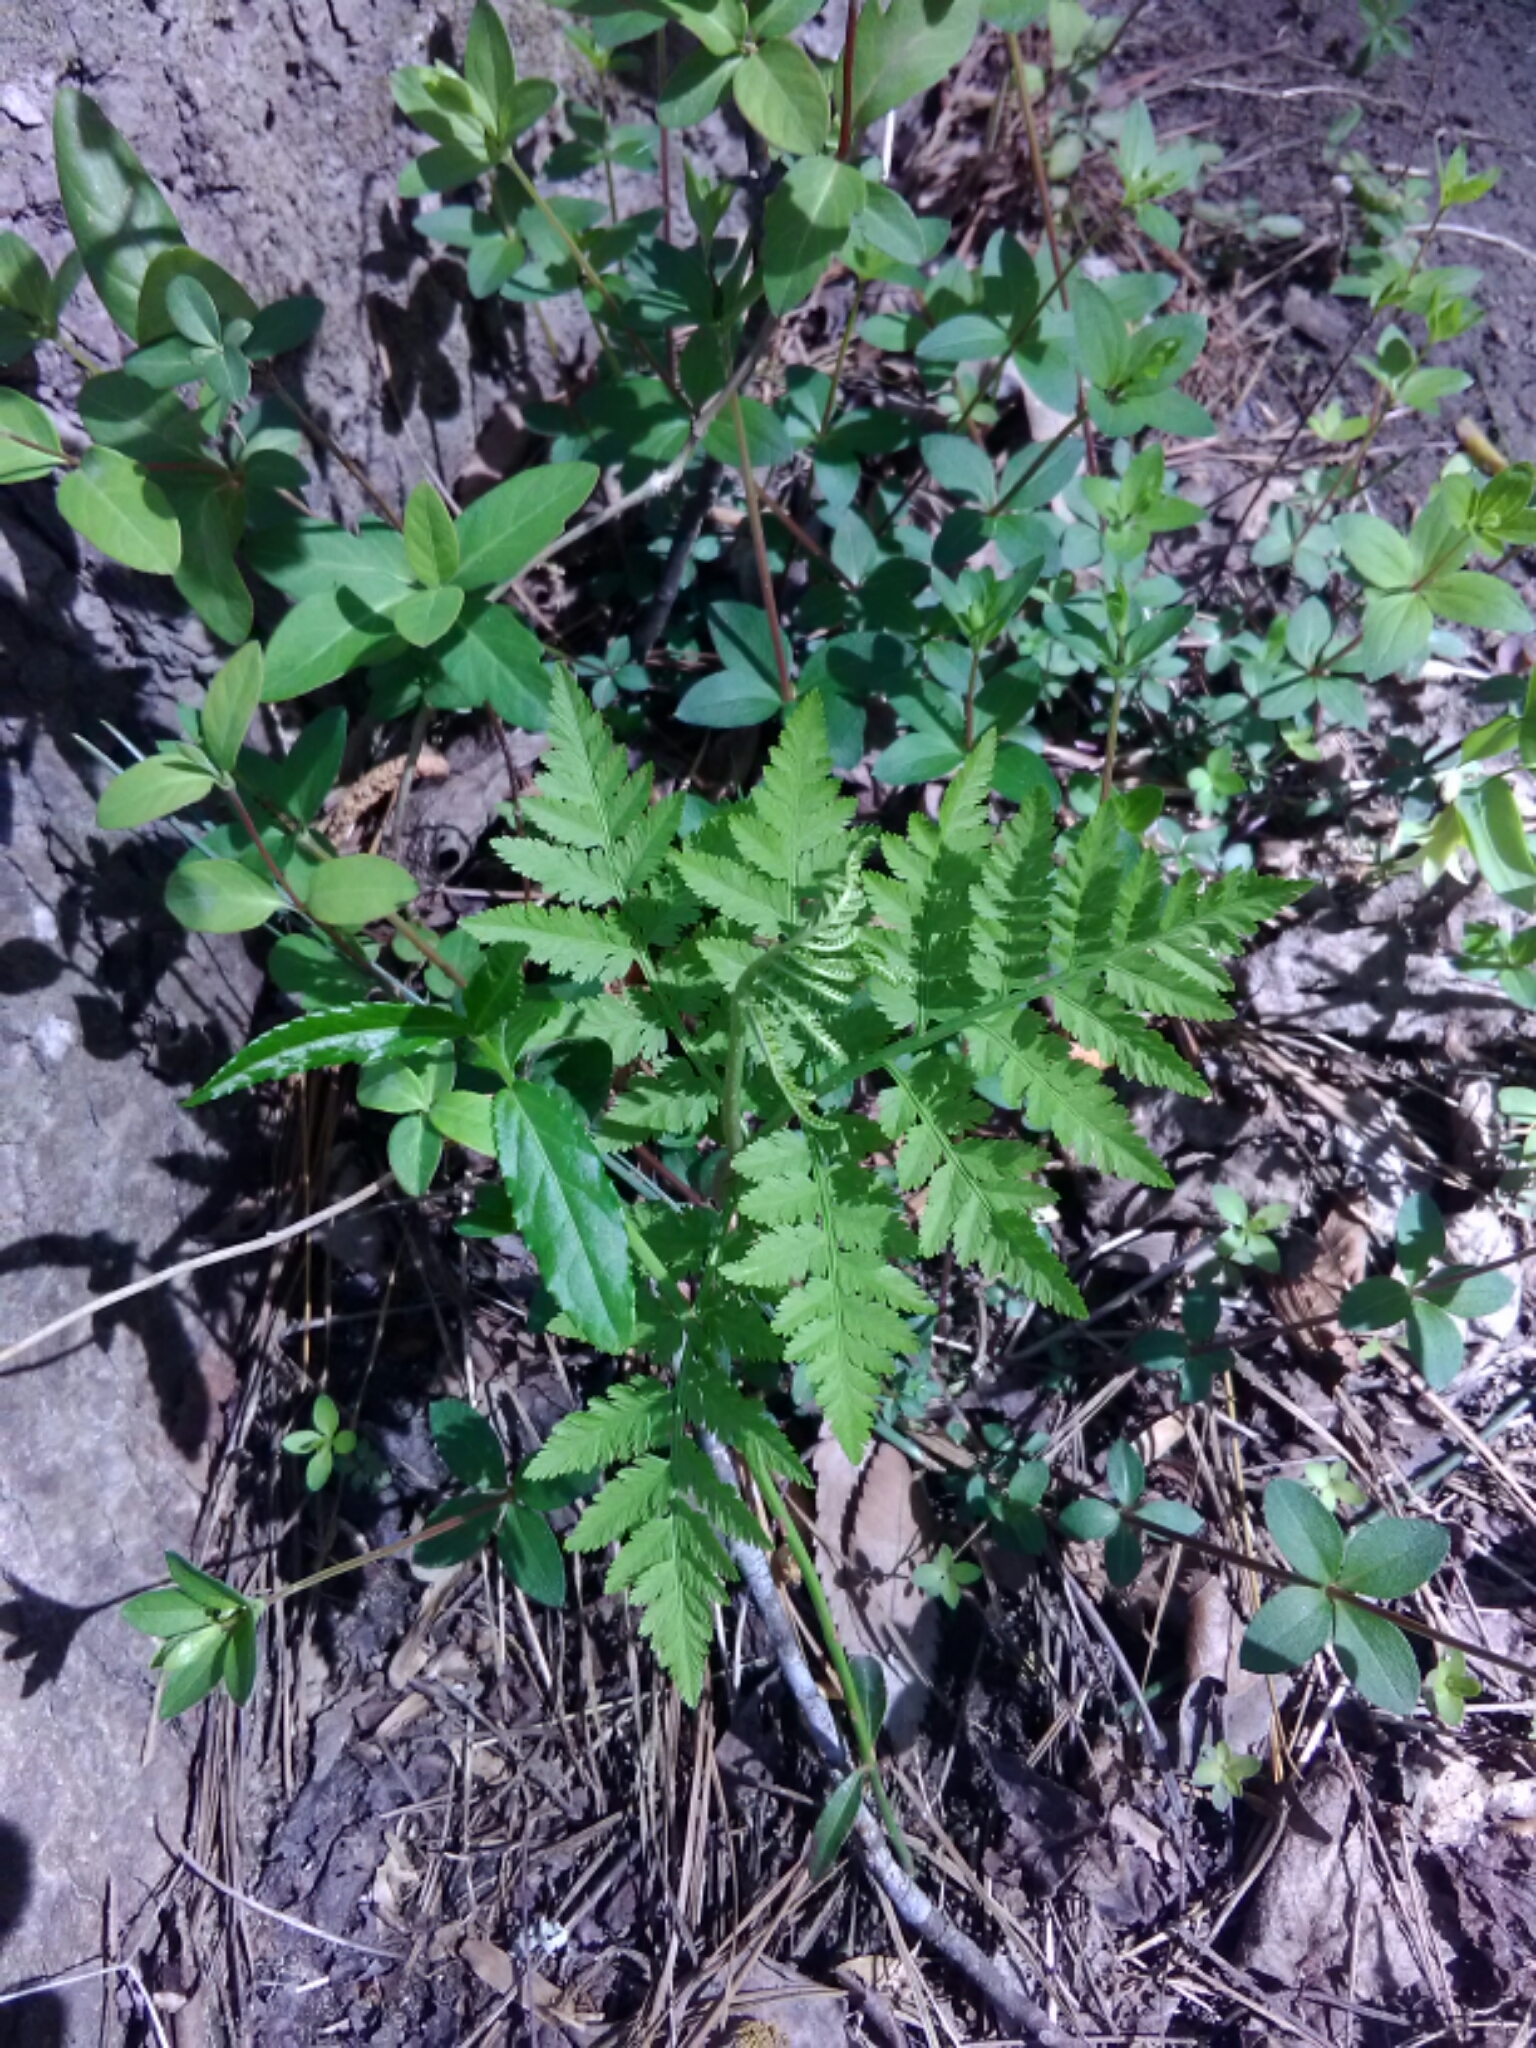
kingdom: Plantae
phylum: Tracheophyta
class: Polypodiopsida
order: Ophioglossales
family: Ophioglossaceae
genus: Botrypus
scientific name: Botrypus virginianus
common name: Common grapefern
